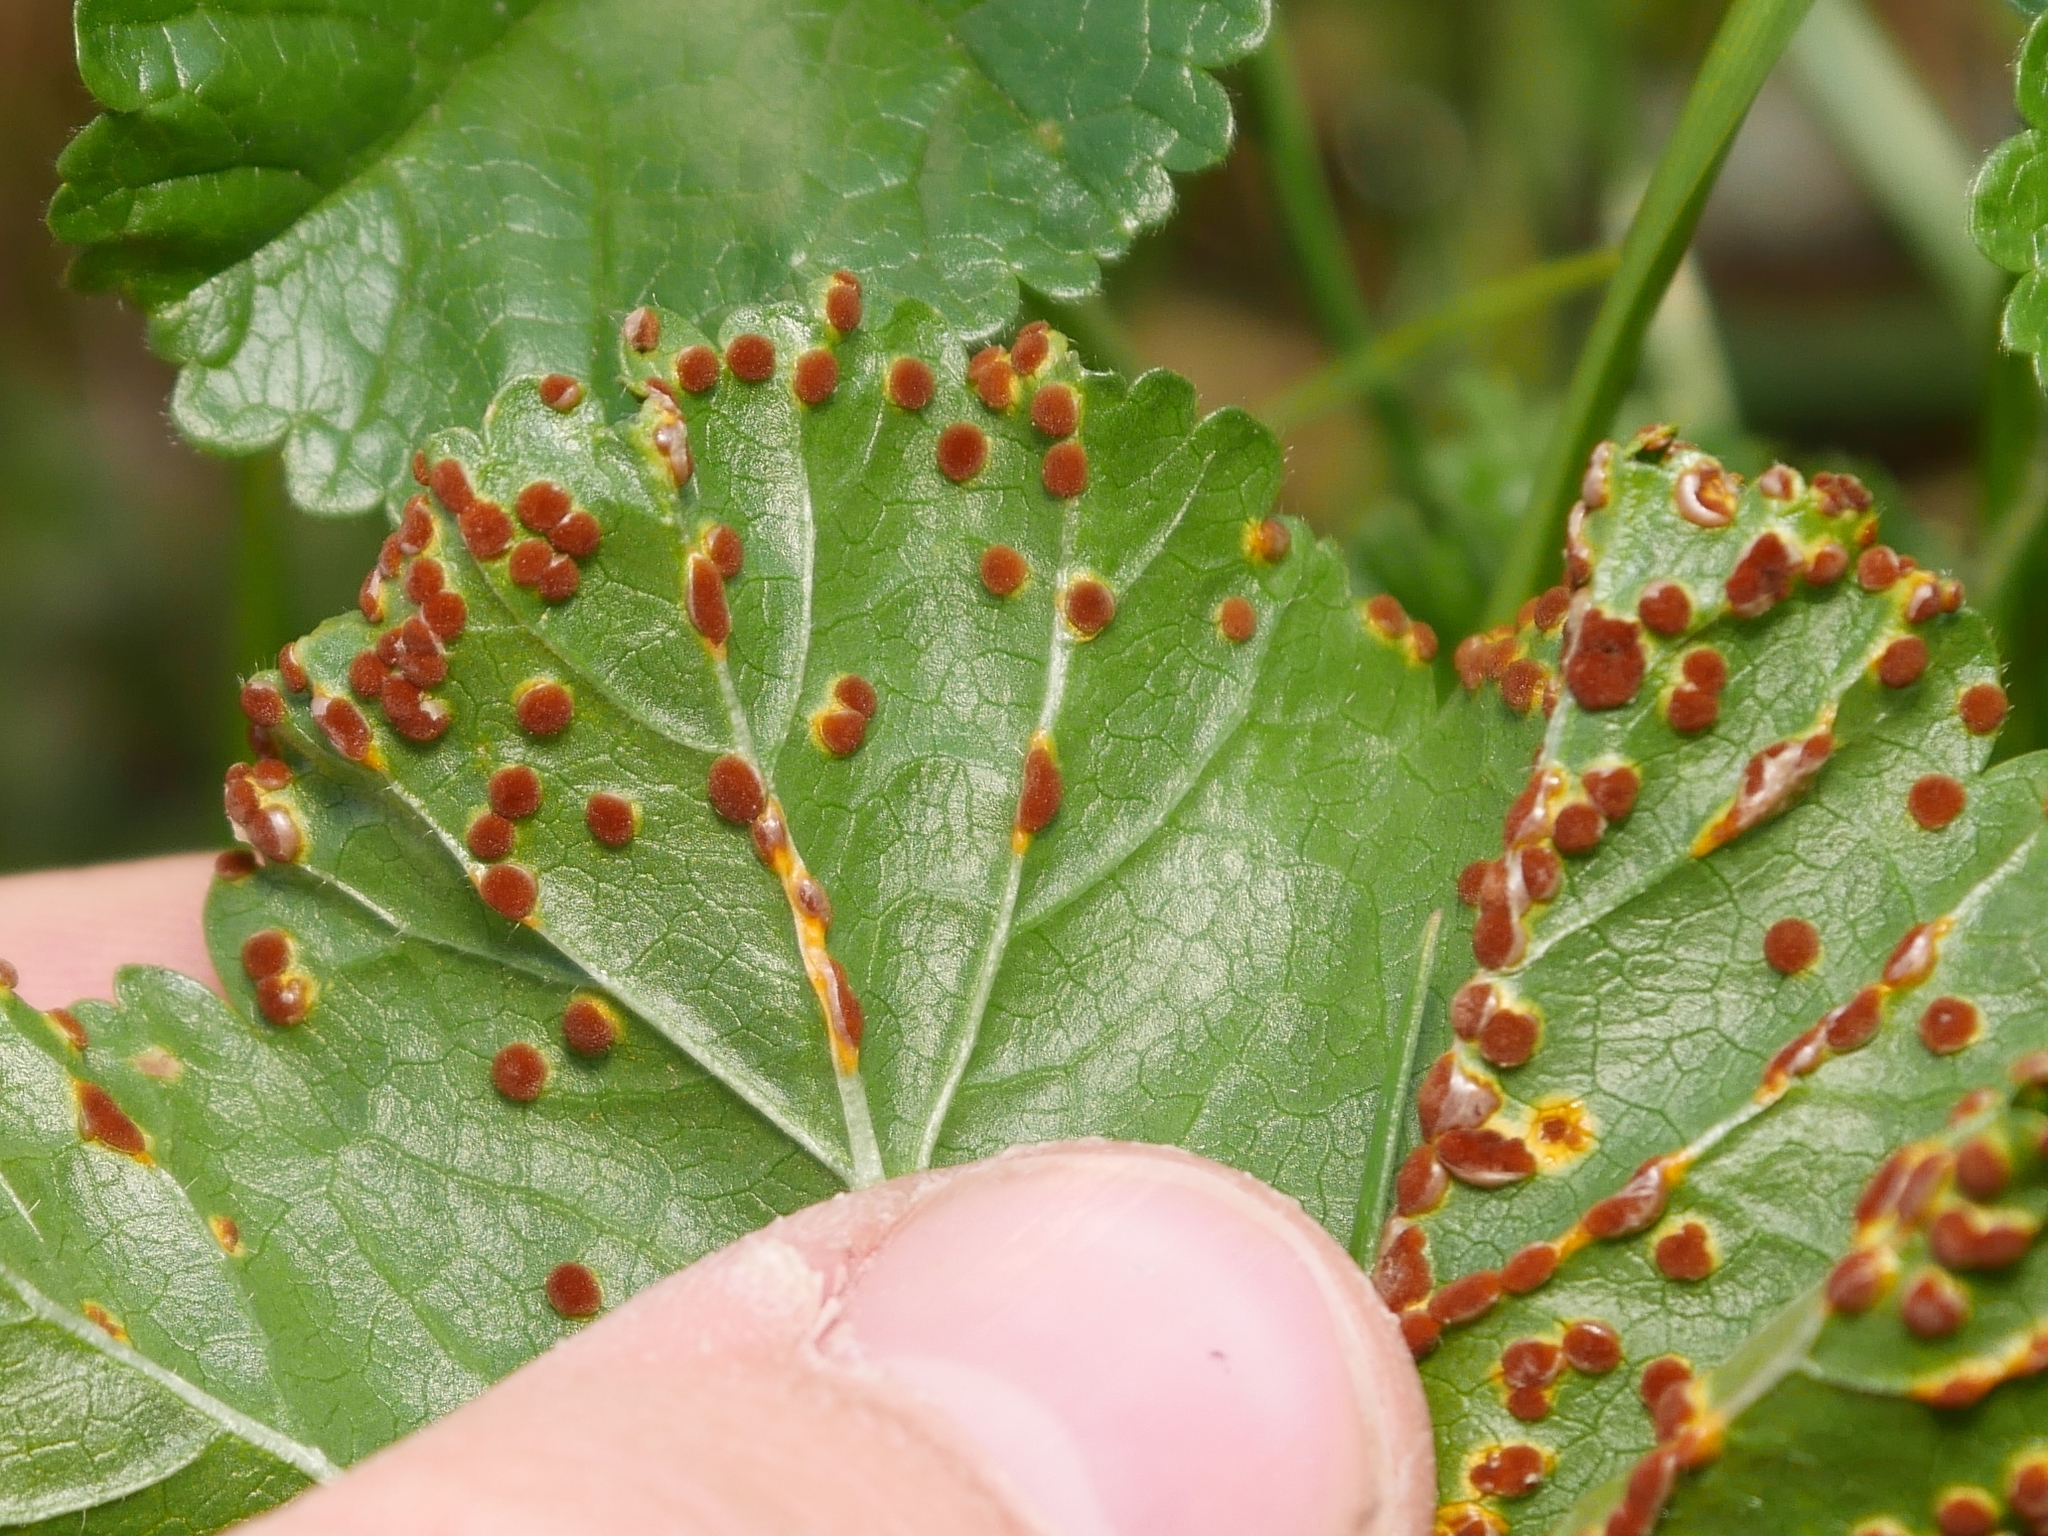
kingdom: Fungi
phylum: Basidiomycota
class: Pucciniomycetes
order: Pucciniales
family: Pucciniaceae
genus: Puccinia
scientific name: Puccinia malvacearum
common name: Hollyhock rust
